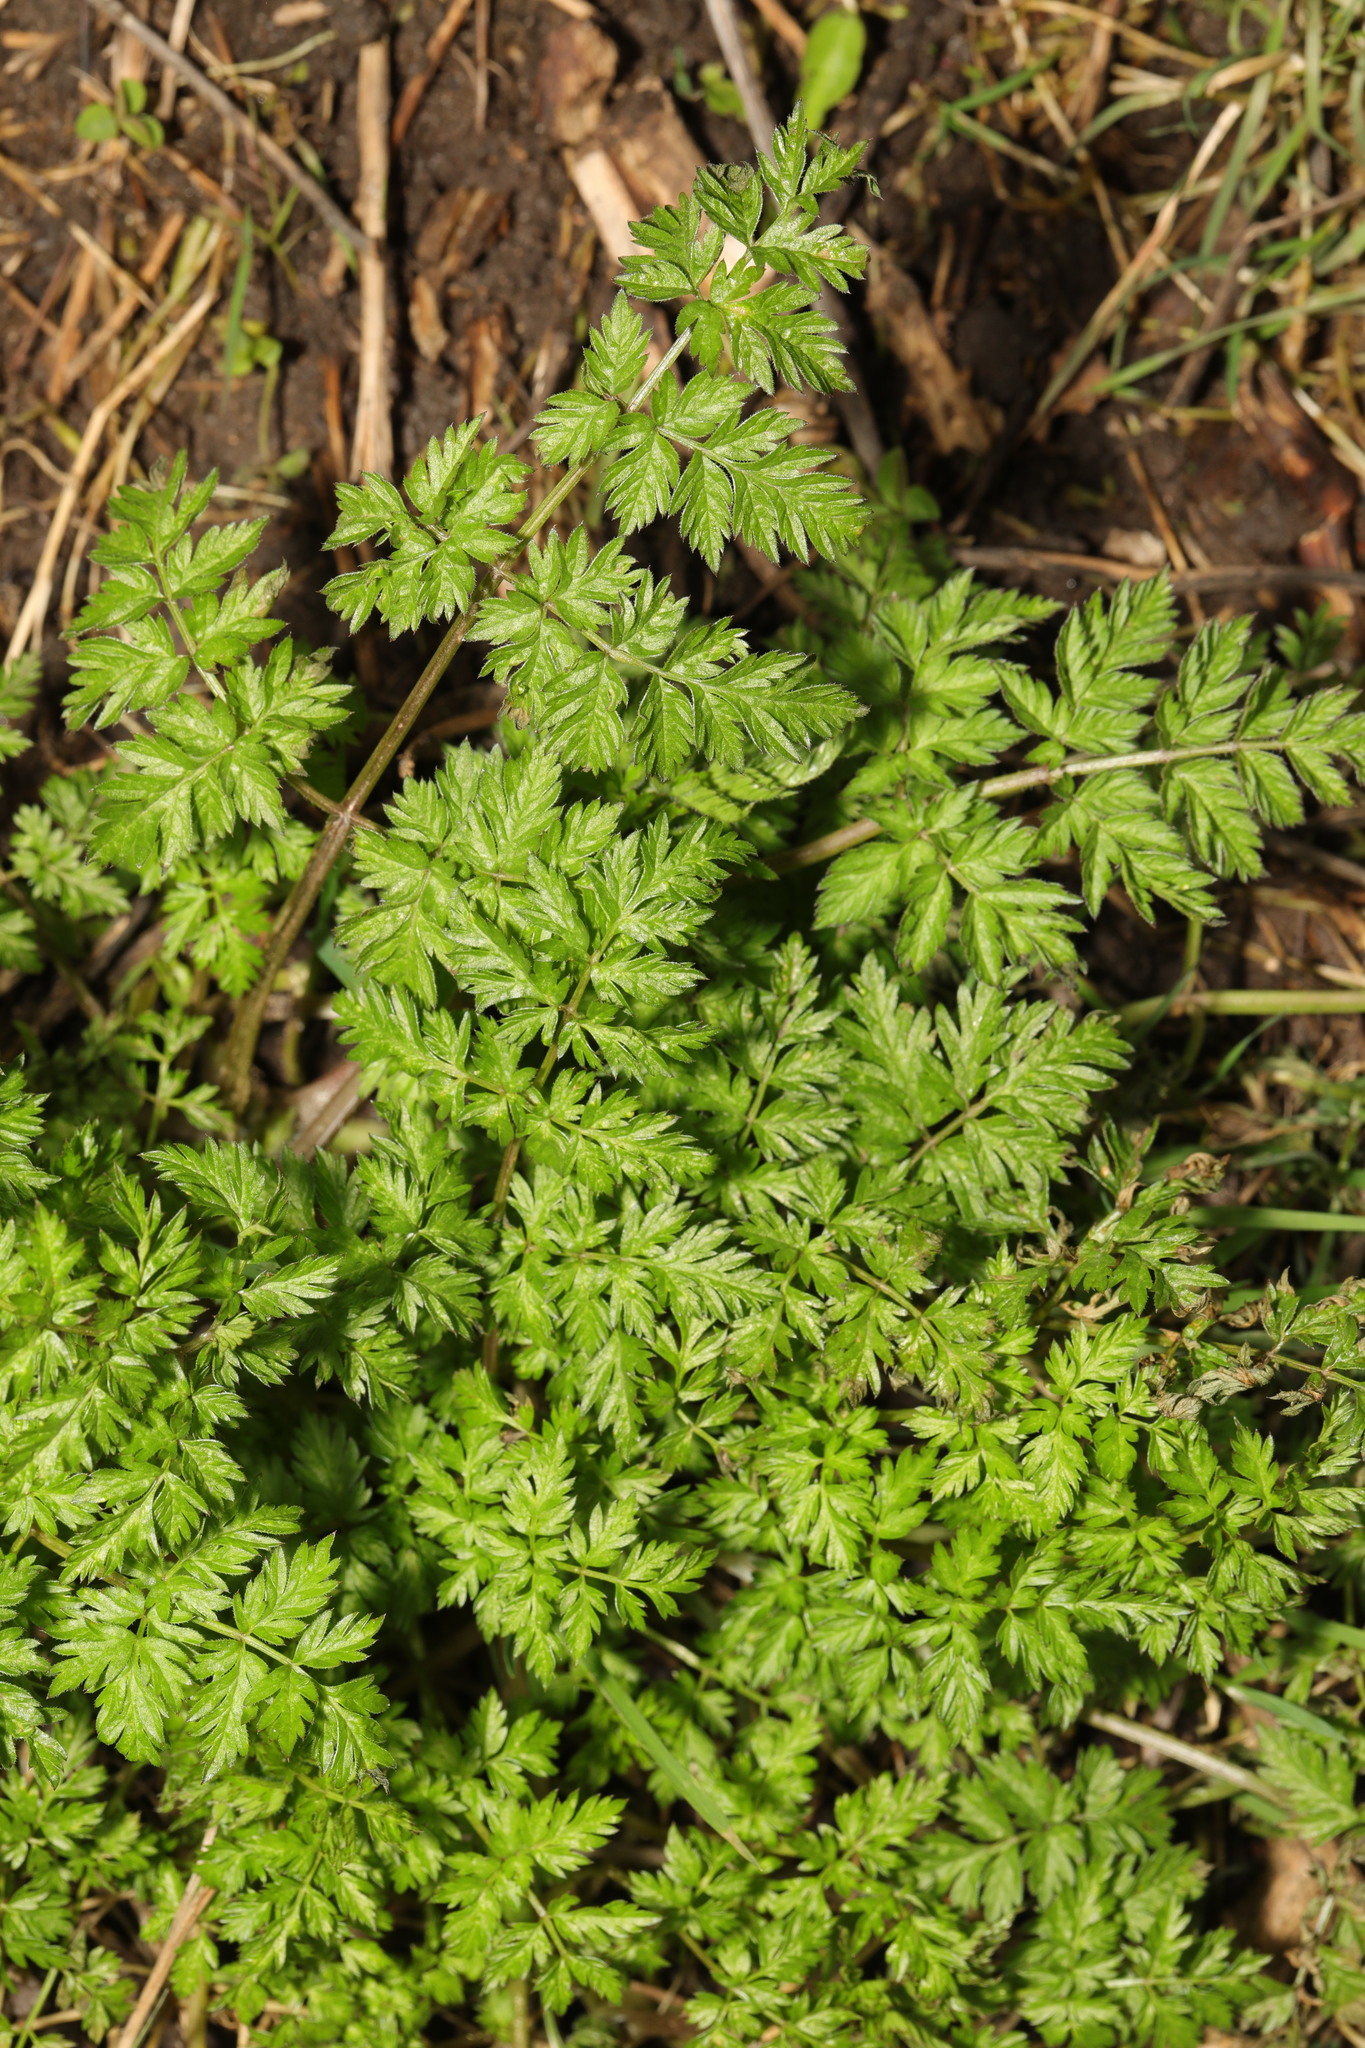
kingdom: Plantae
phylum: Tracheophyta
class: Magnoliopsida
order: Apiales
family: Apiaceae
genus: Anthriscus
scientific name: Anthriscus sylvestris
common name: Cow parsley
